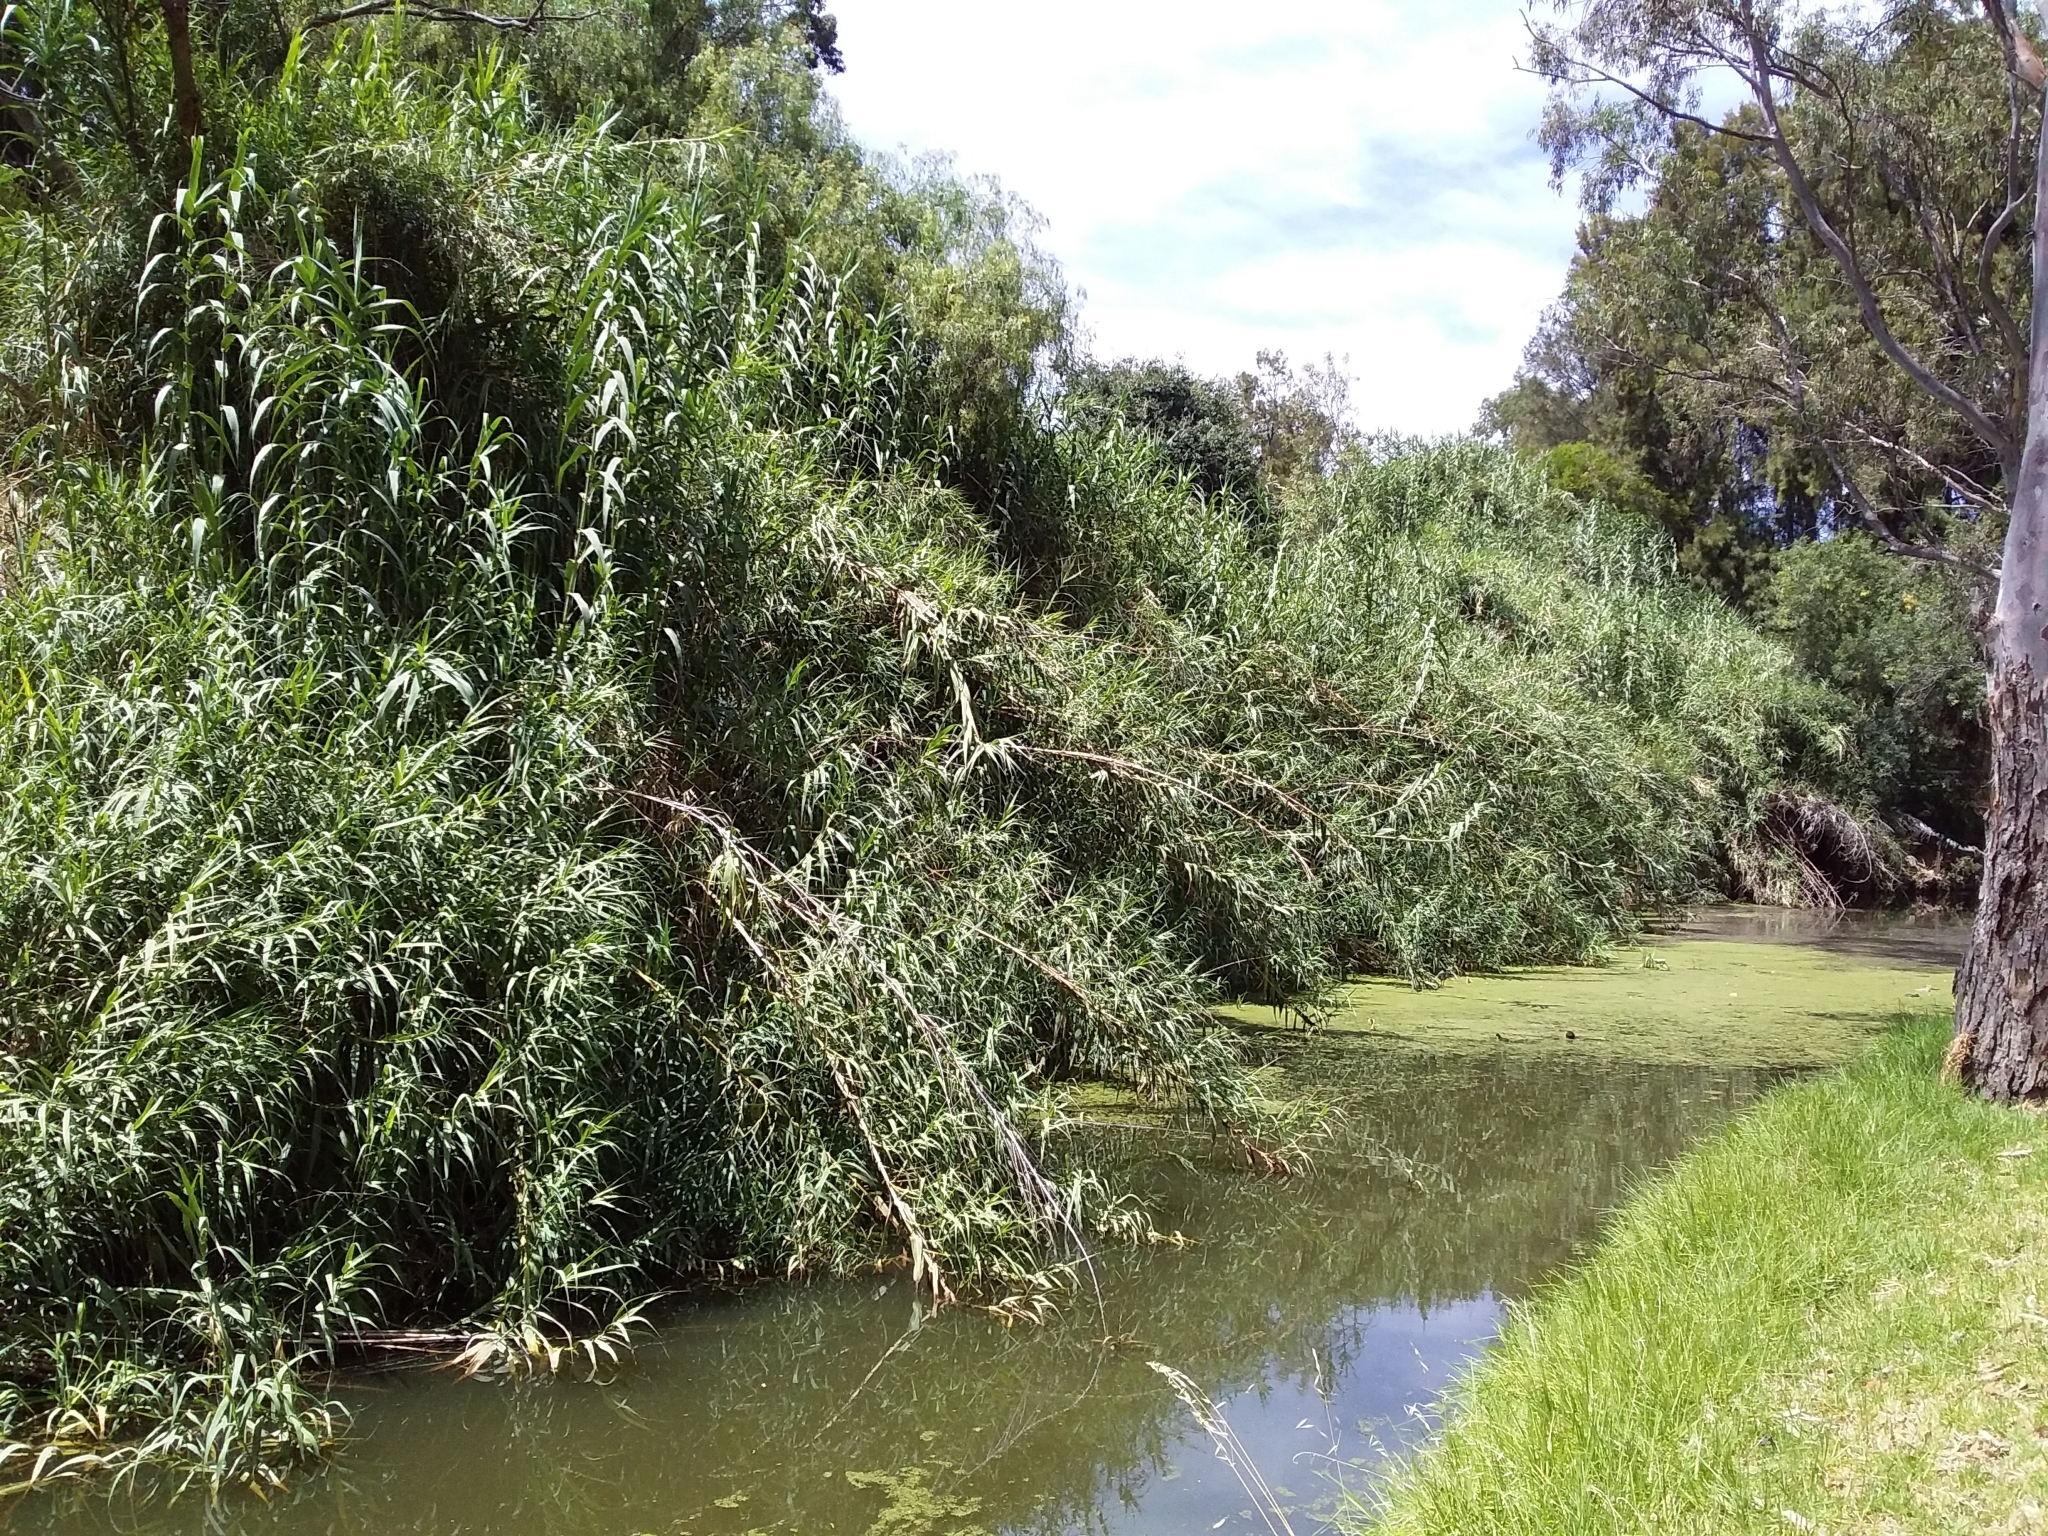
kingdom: Plantae
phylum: Tracheophyta
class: Liliopsida
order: Poales
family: Poaceae
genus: Arundo
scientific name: Arundo donax
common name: Giant reed
